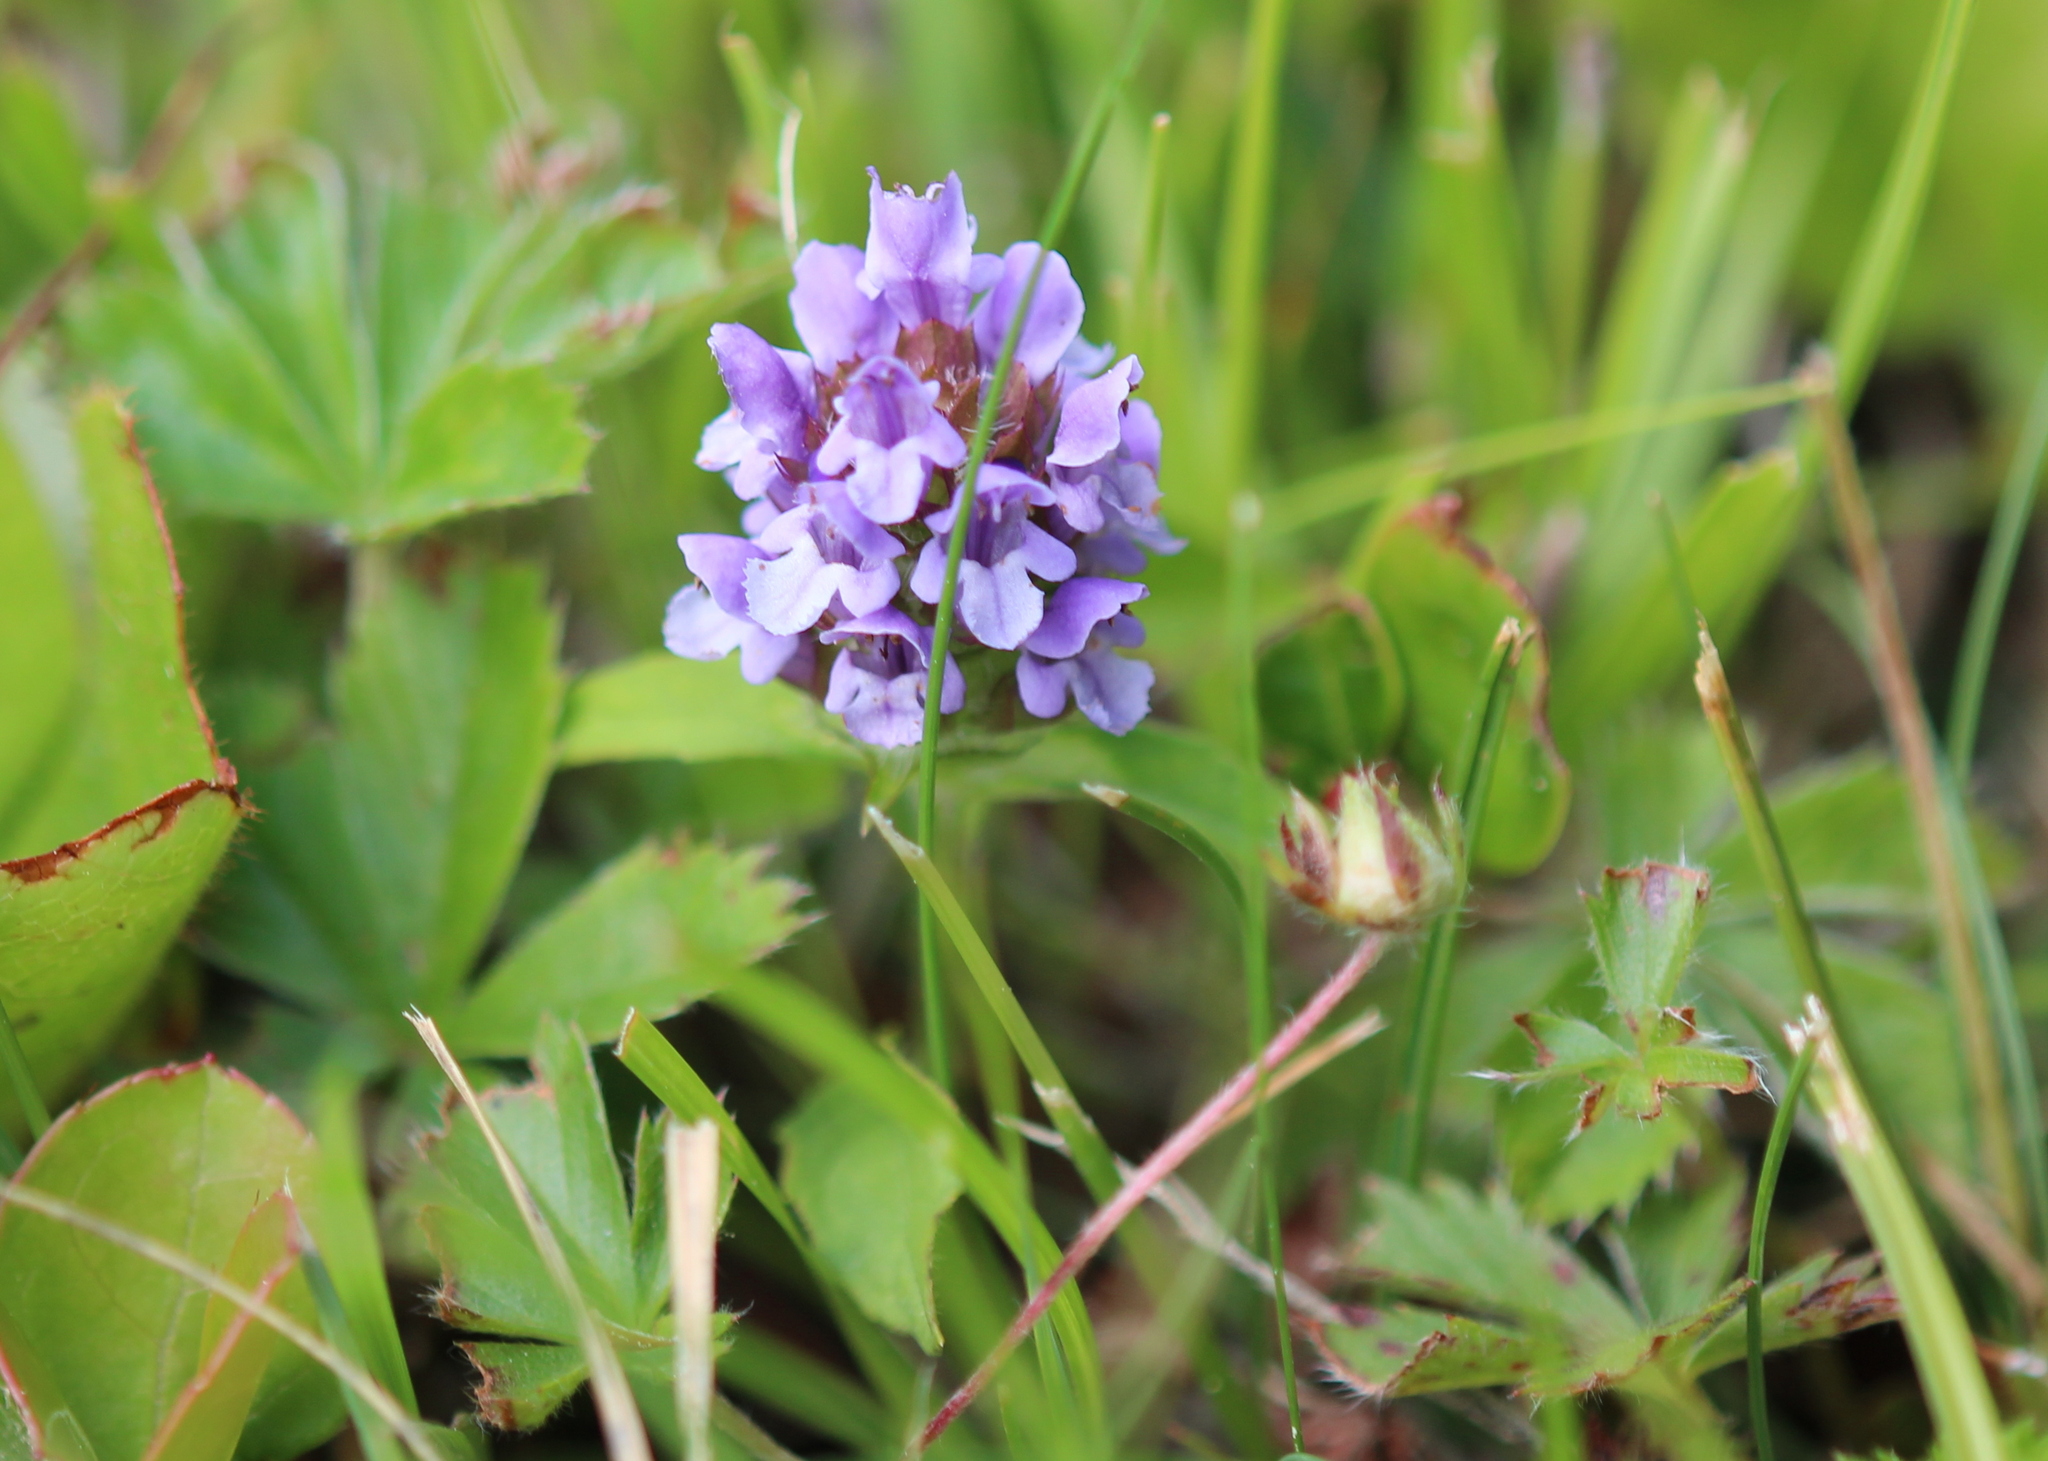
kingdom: Plantae
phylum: Tracheophyta
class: Magnoliopsida
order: Lamiales
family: Lamiaceae
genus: Prunella
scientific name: Prunella vulgaris
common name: Heal-all
